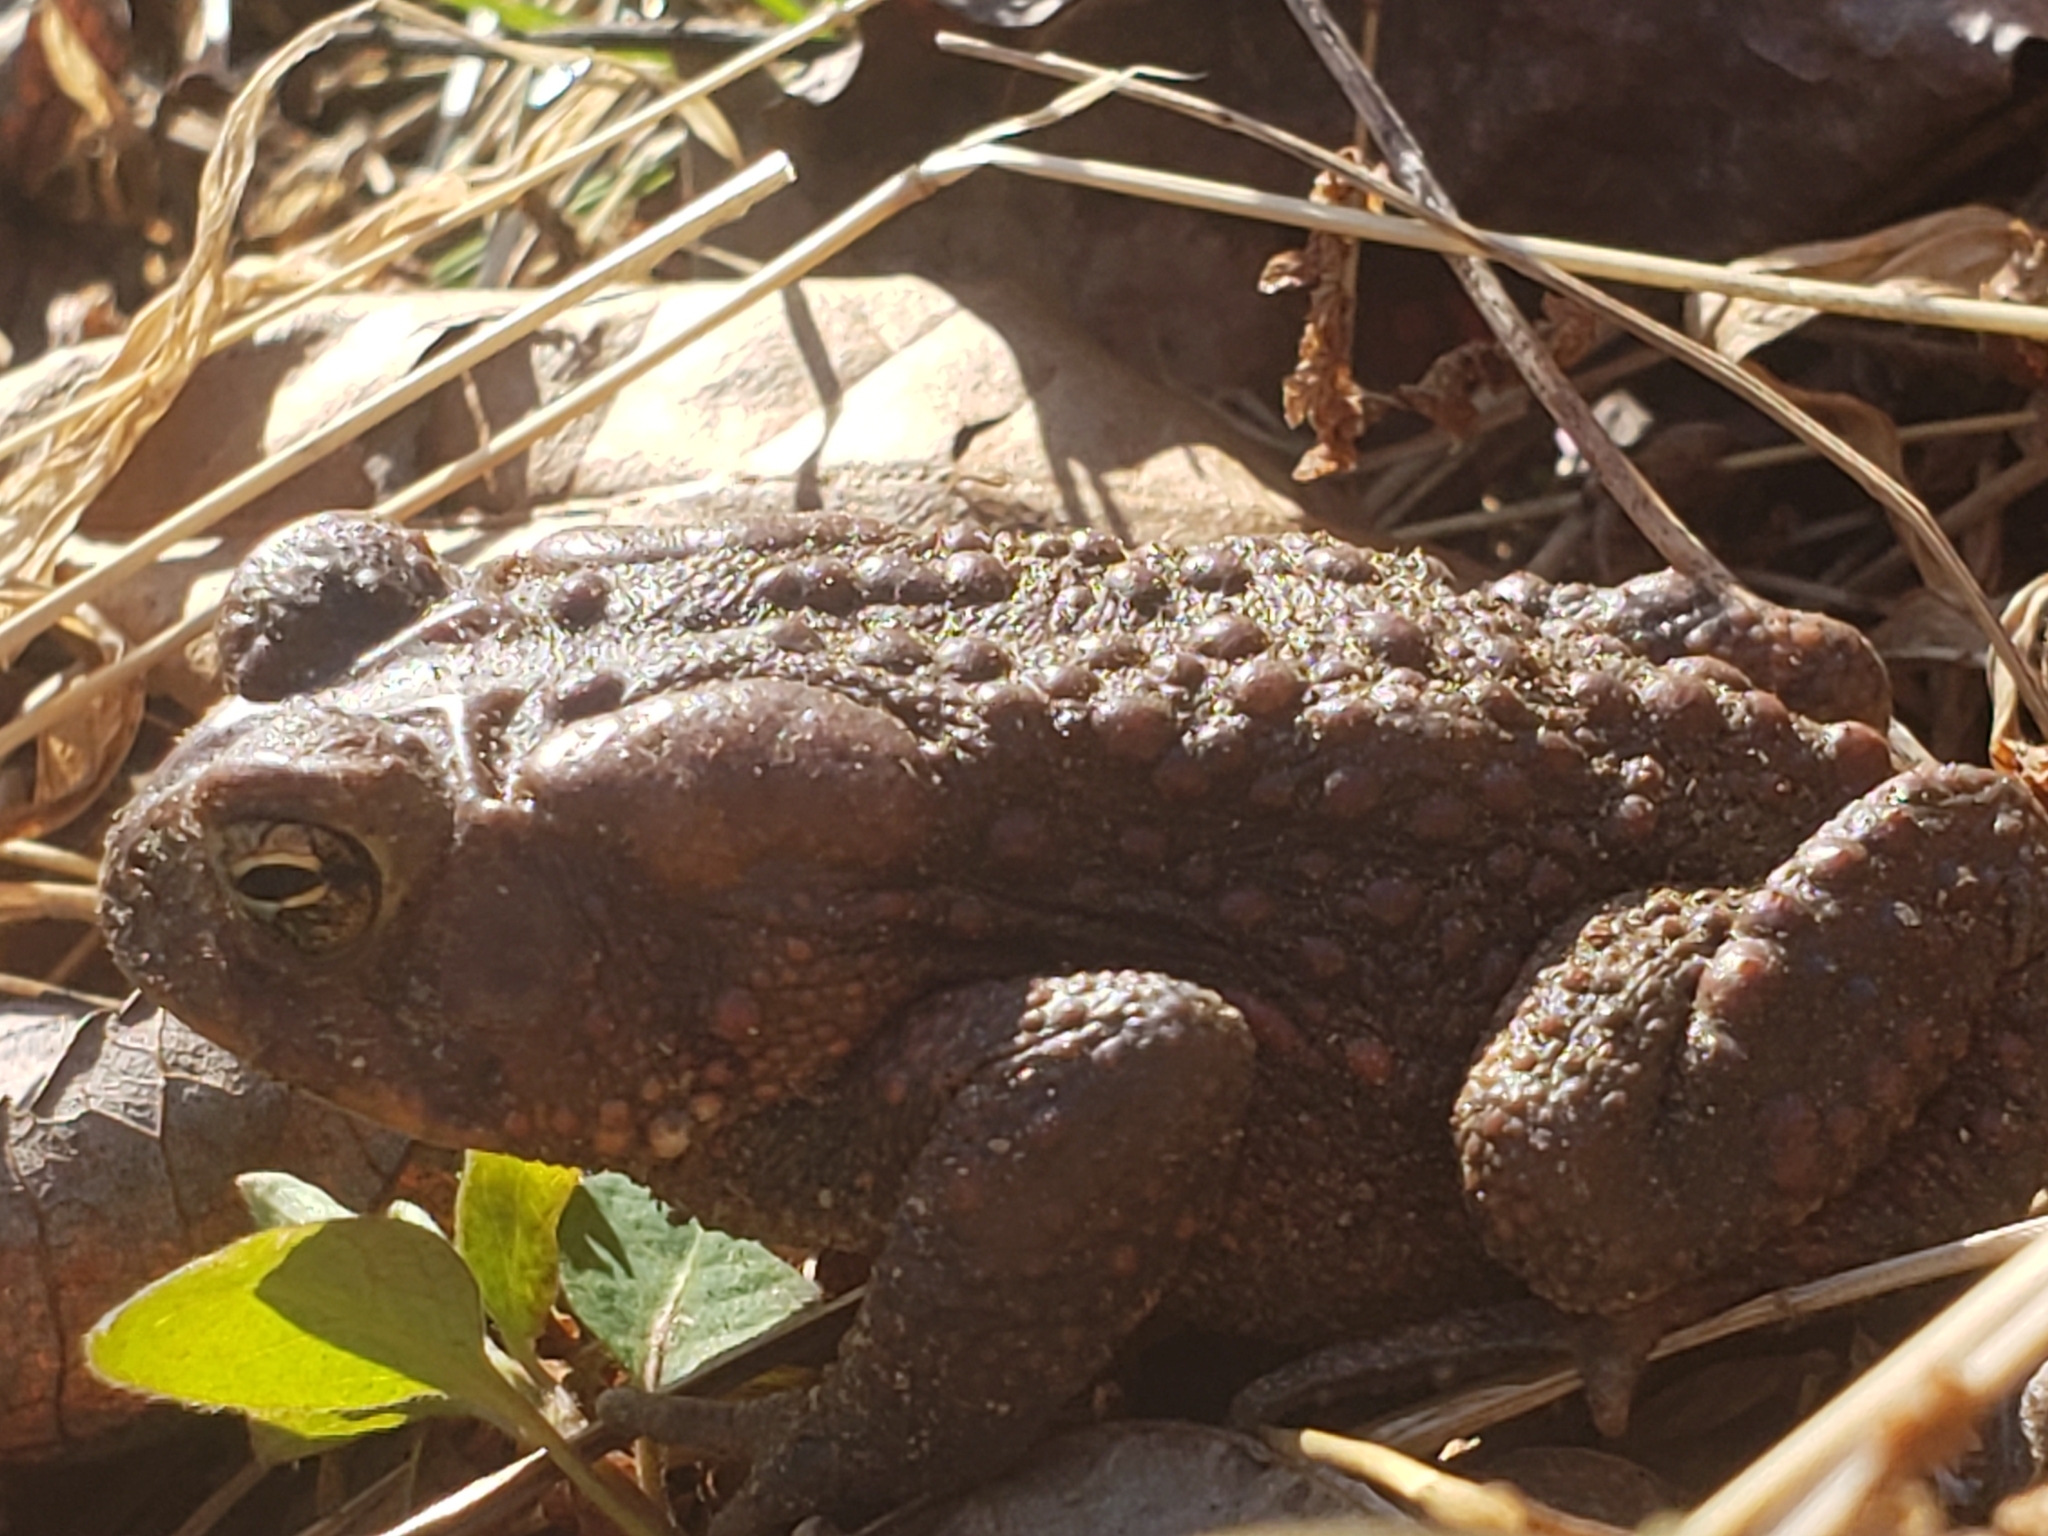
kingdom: Animalia
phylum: Chordata
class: Amphibia
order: Anura
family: Bufonidae
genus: Anaxyrus
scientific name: Anaxyrus americanus
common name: American toad
